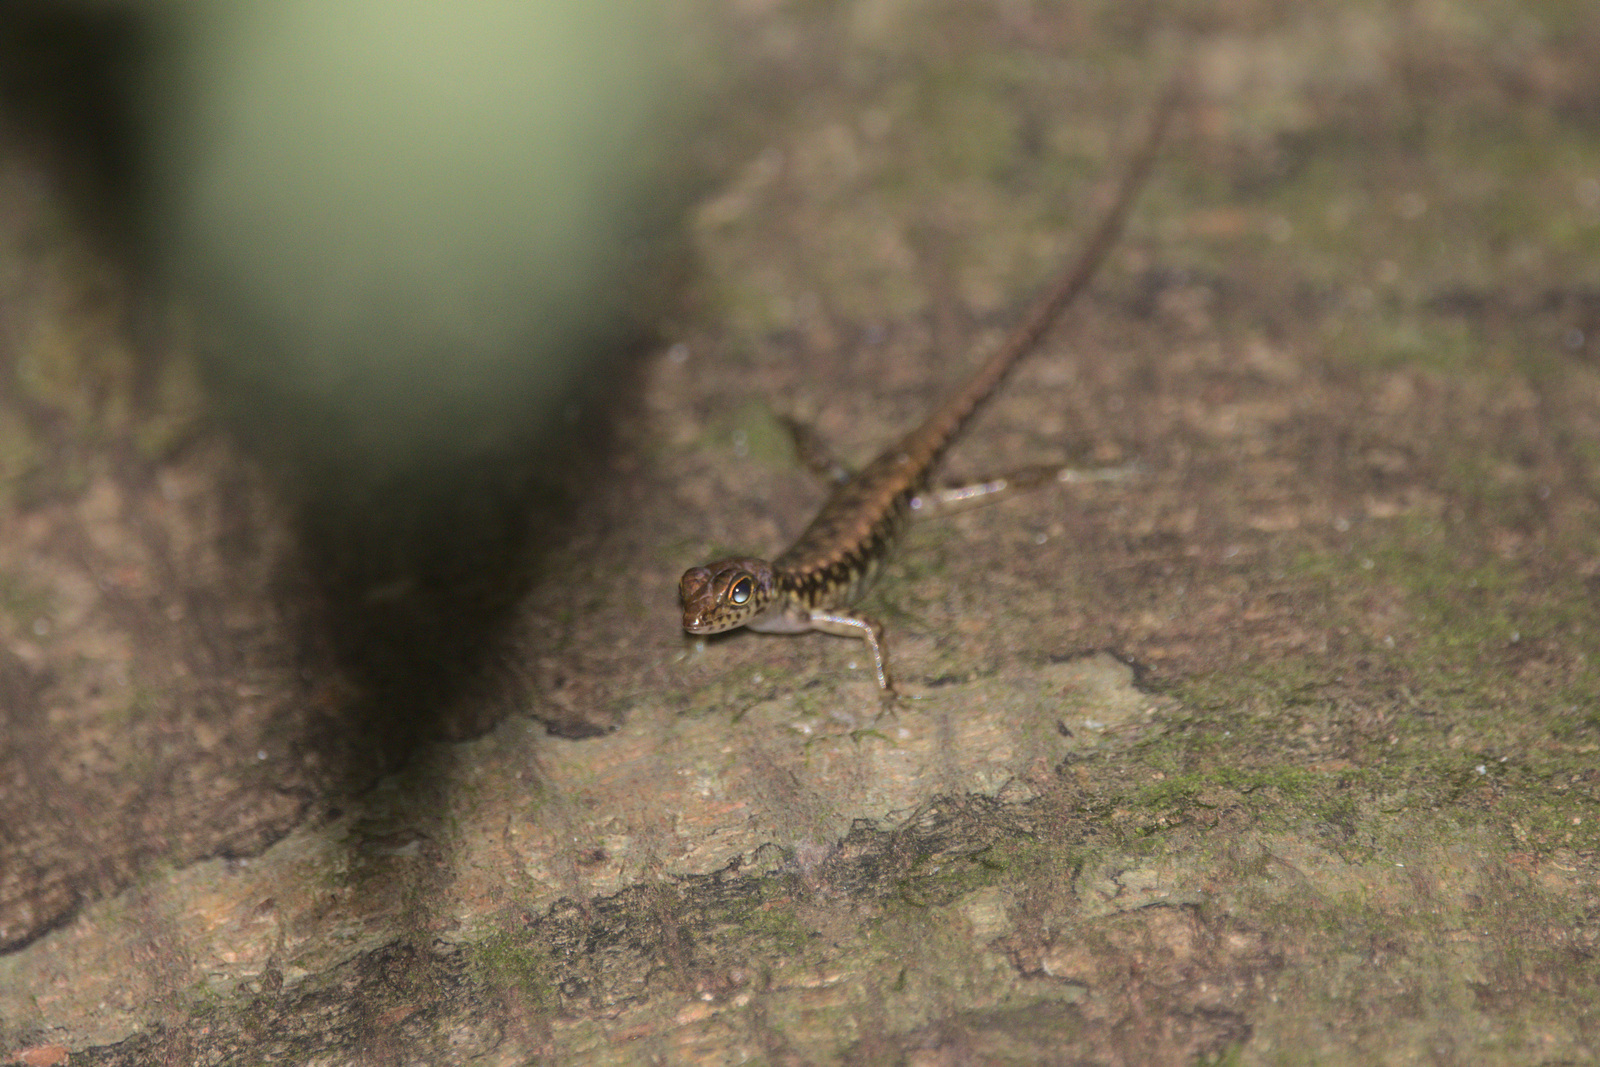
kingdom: Animalia
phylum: Chordata
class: Squamata
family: Scincidae
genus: Sphenomorphus
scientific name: Sphenomorphus scotophilus
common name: Selangor forest skink
